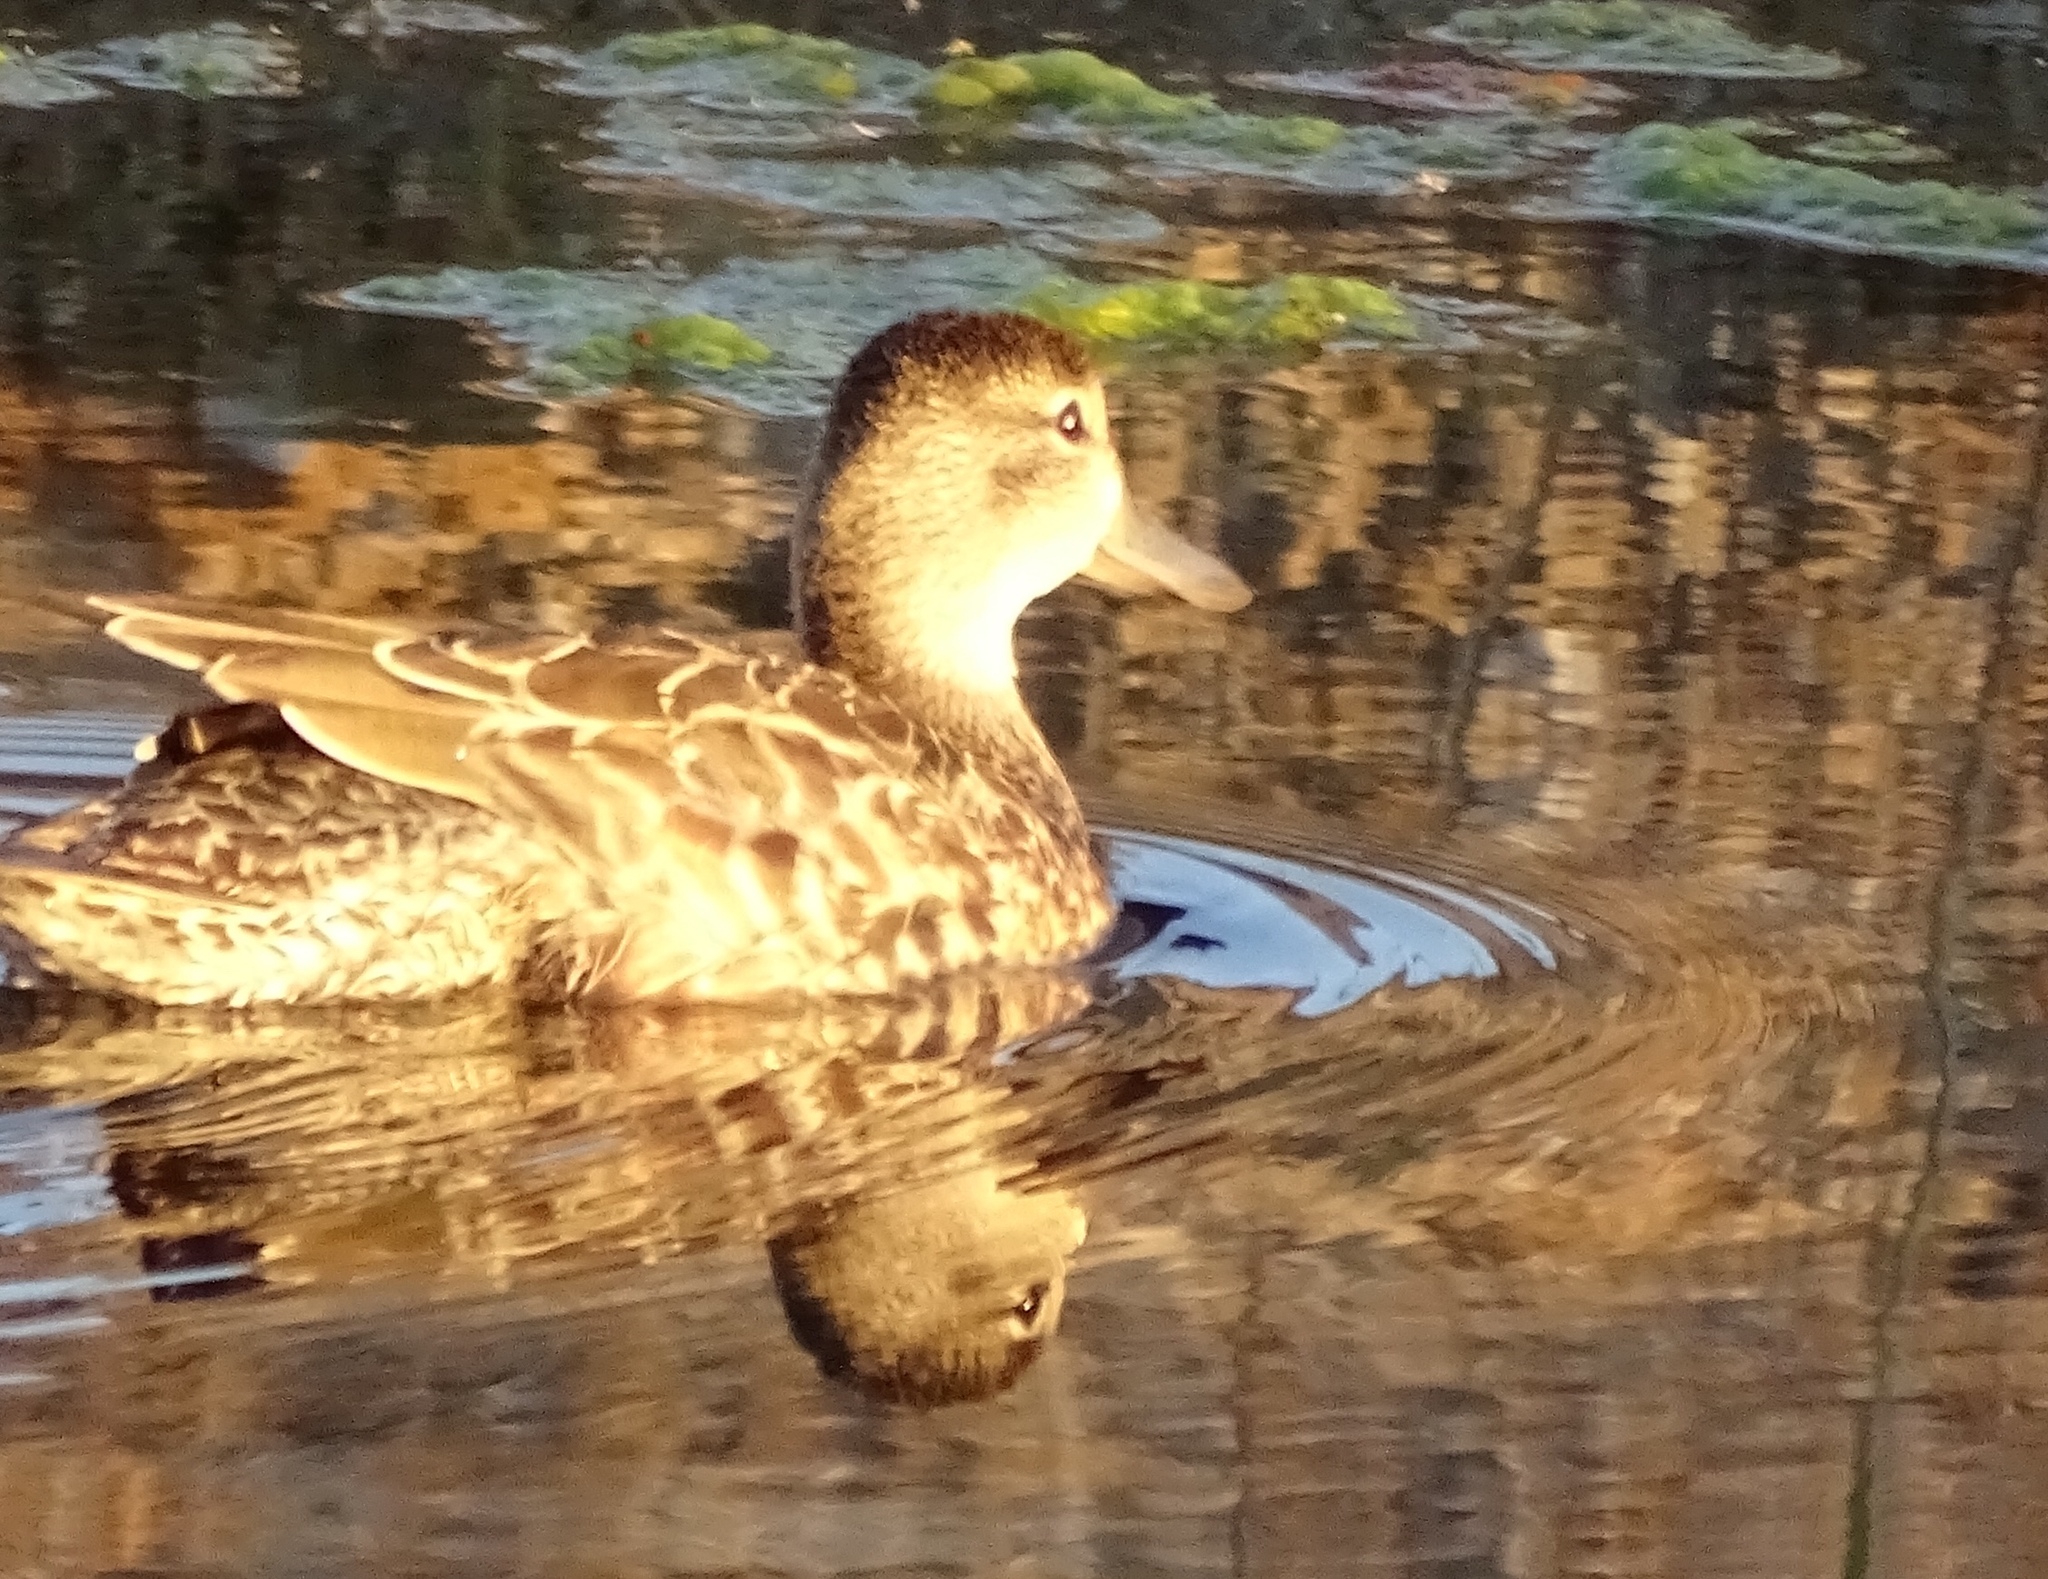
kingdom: Animalia
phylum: Chordata
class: Aves
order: Anseriformes
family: Anatidae
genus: Spatula
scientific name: Spatula discors
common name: Blue-winged teal
